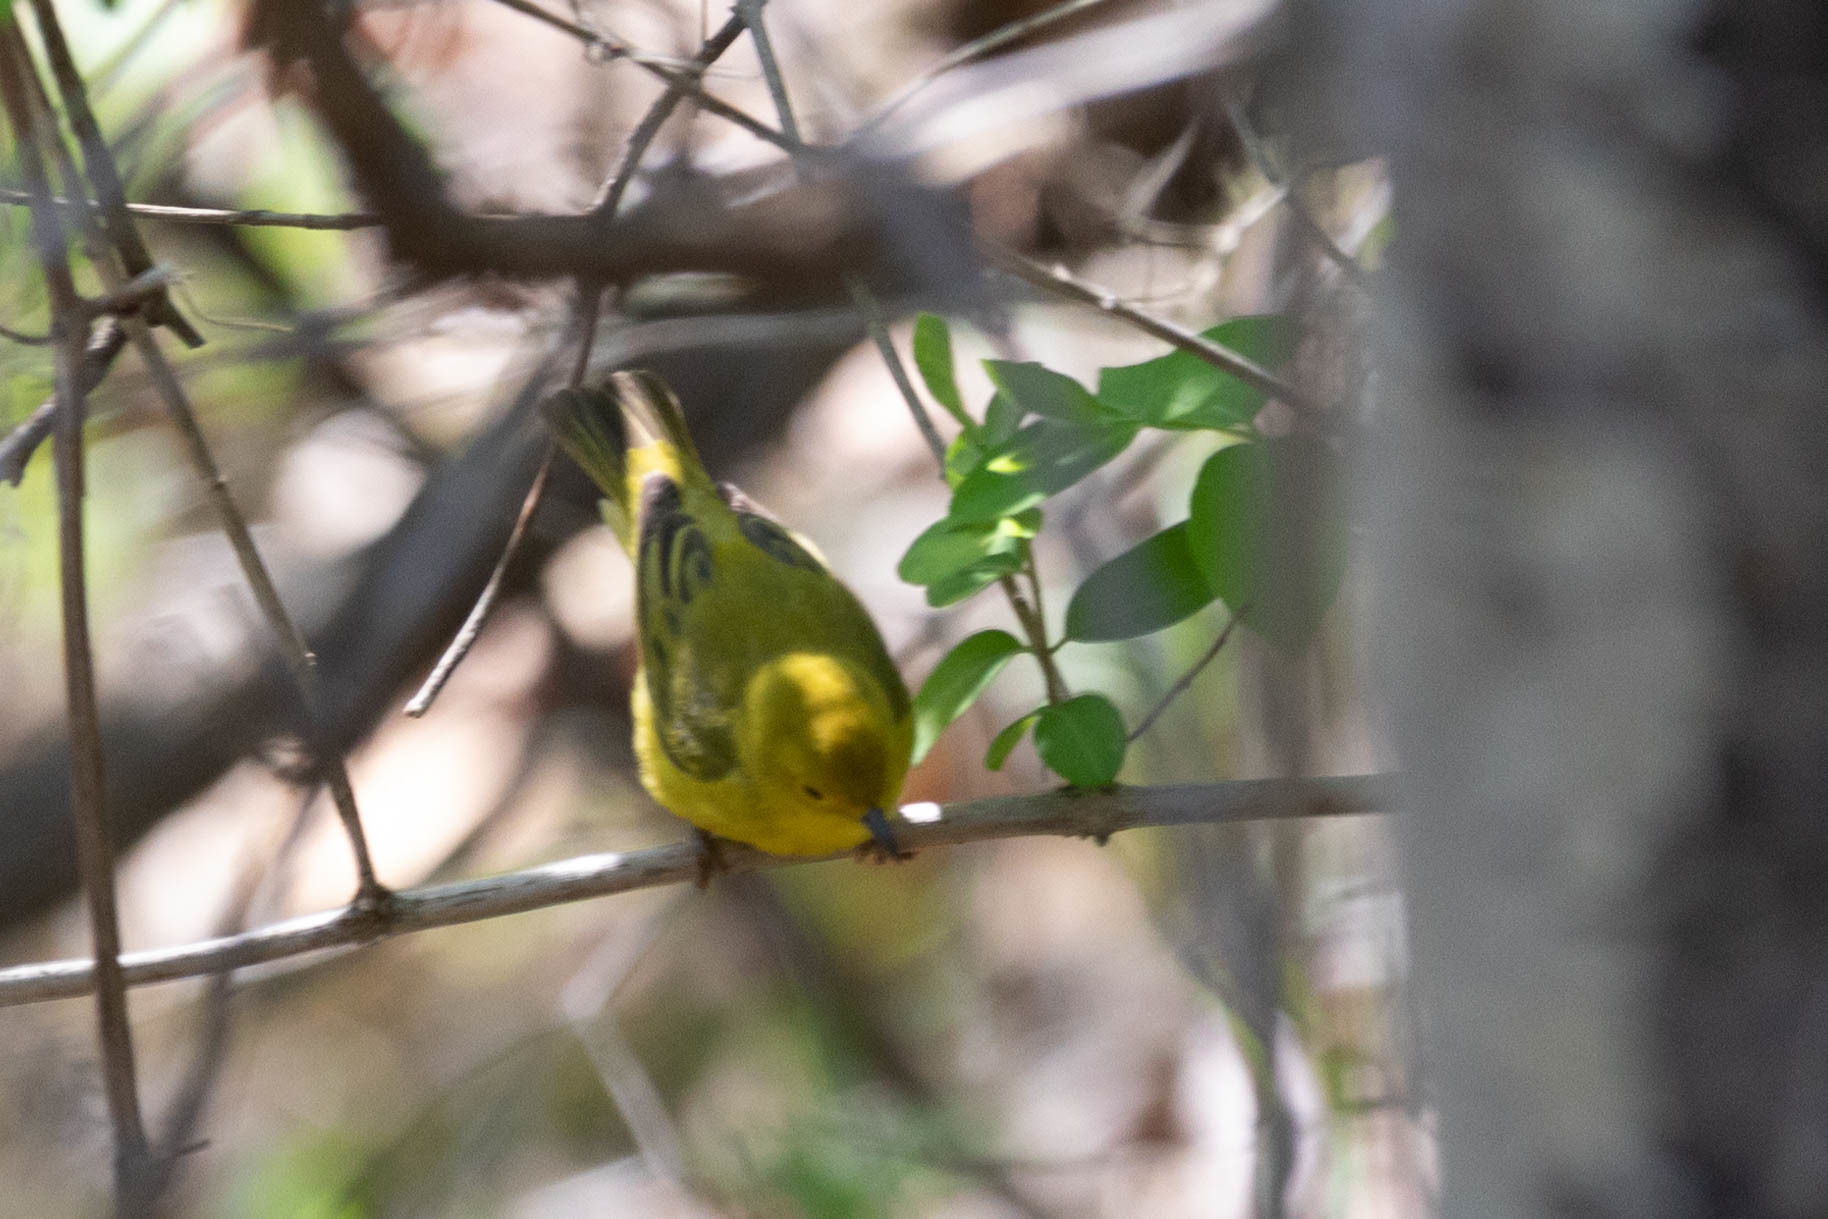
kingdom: Animalia
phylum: Chordata
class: Aves
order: Passeriformes
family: Parulidae
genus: Setophaga
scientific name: Setophaga petechia
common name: Yellow warbler
